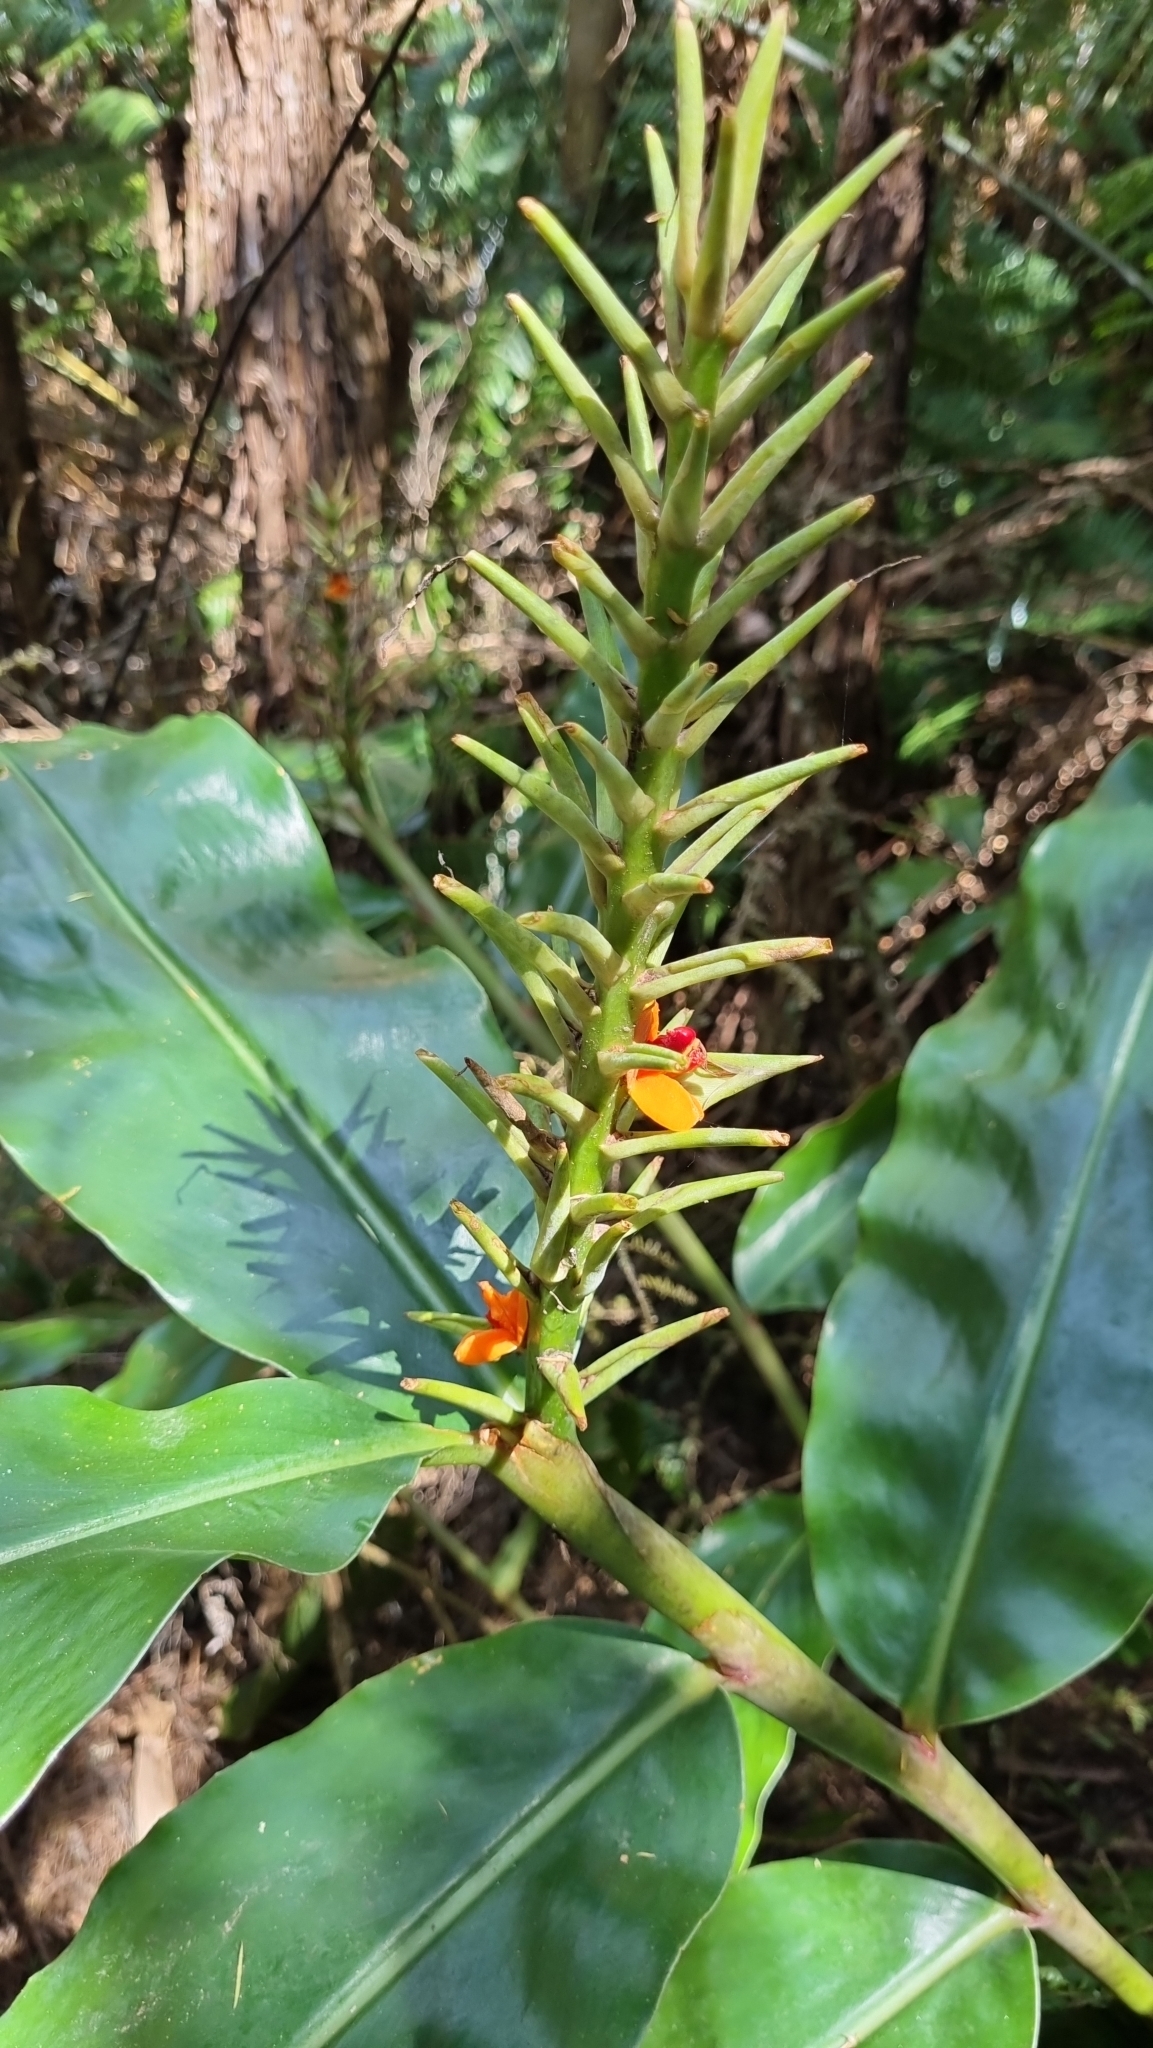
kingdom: Plantae
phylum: Tracheophyta
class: Liliopsida
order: Zingiberales
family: Zingiberaceae
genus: Hedychium
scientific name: Hedychium gardnerianum
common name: Himalayan ginger
